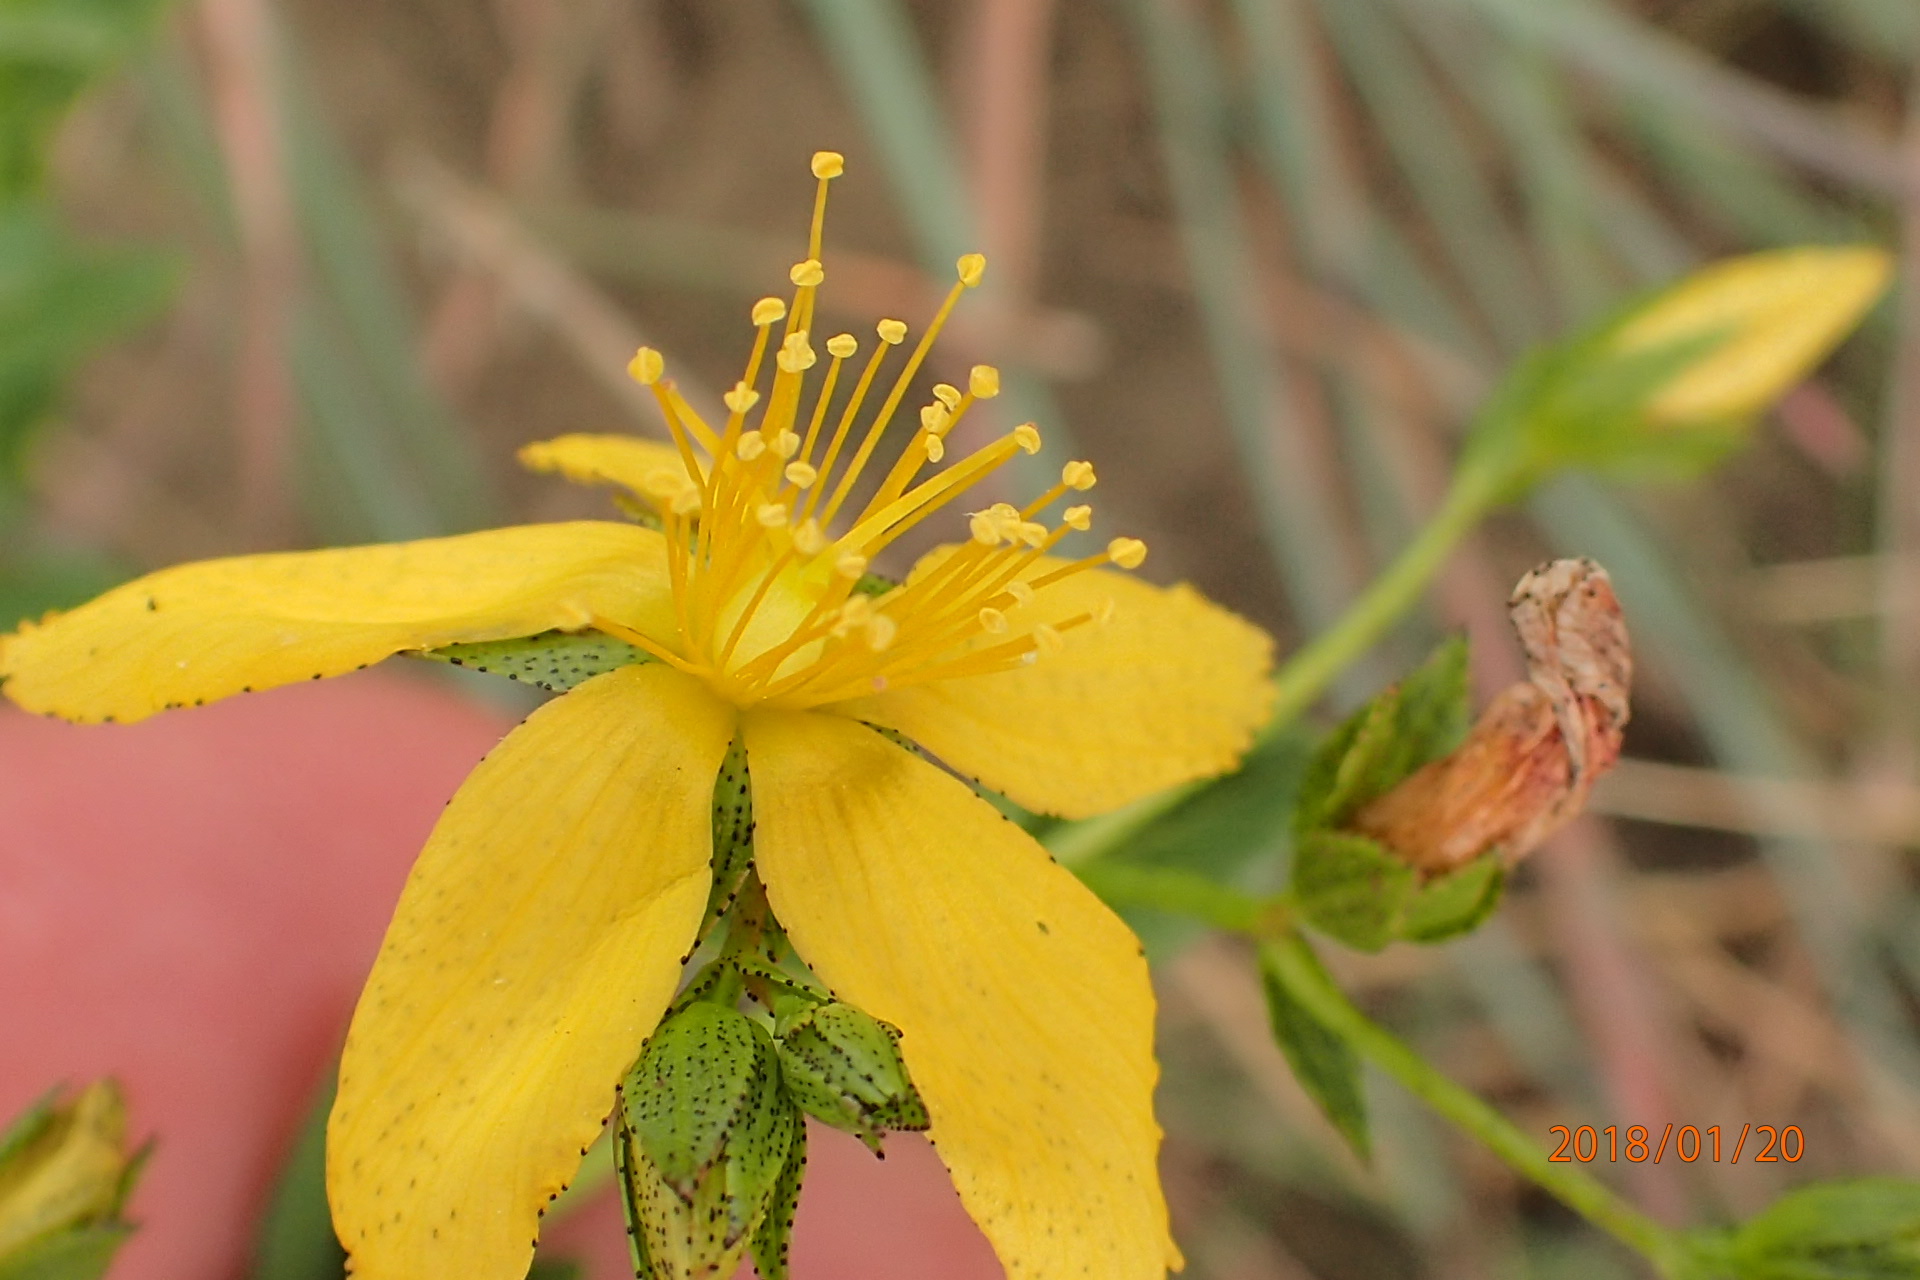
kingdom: Plantae
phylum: Tracheophyta
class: Magnoliopsida
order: Malpighiales
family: Hypericaceae
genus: Hypericum
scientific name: Hypericum aethiopicum
